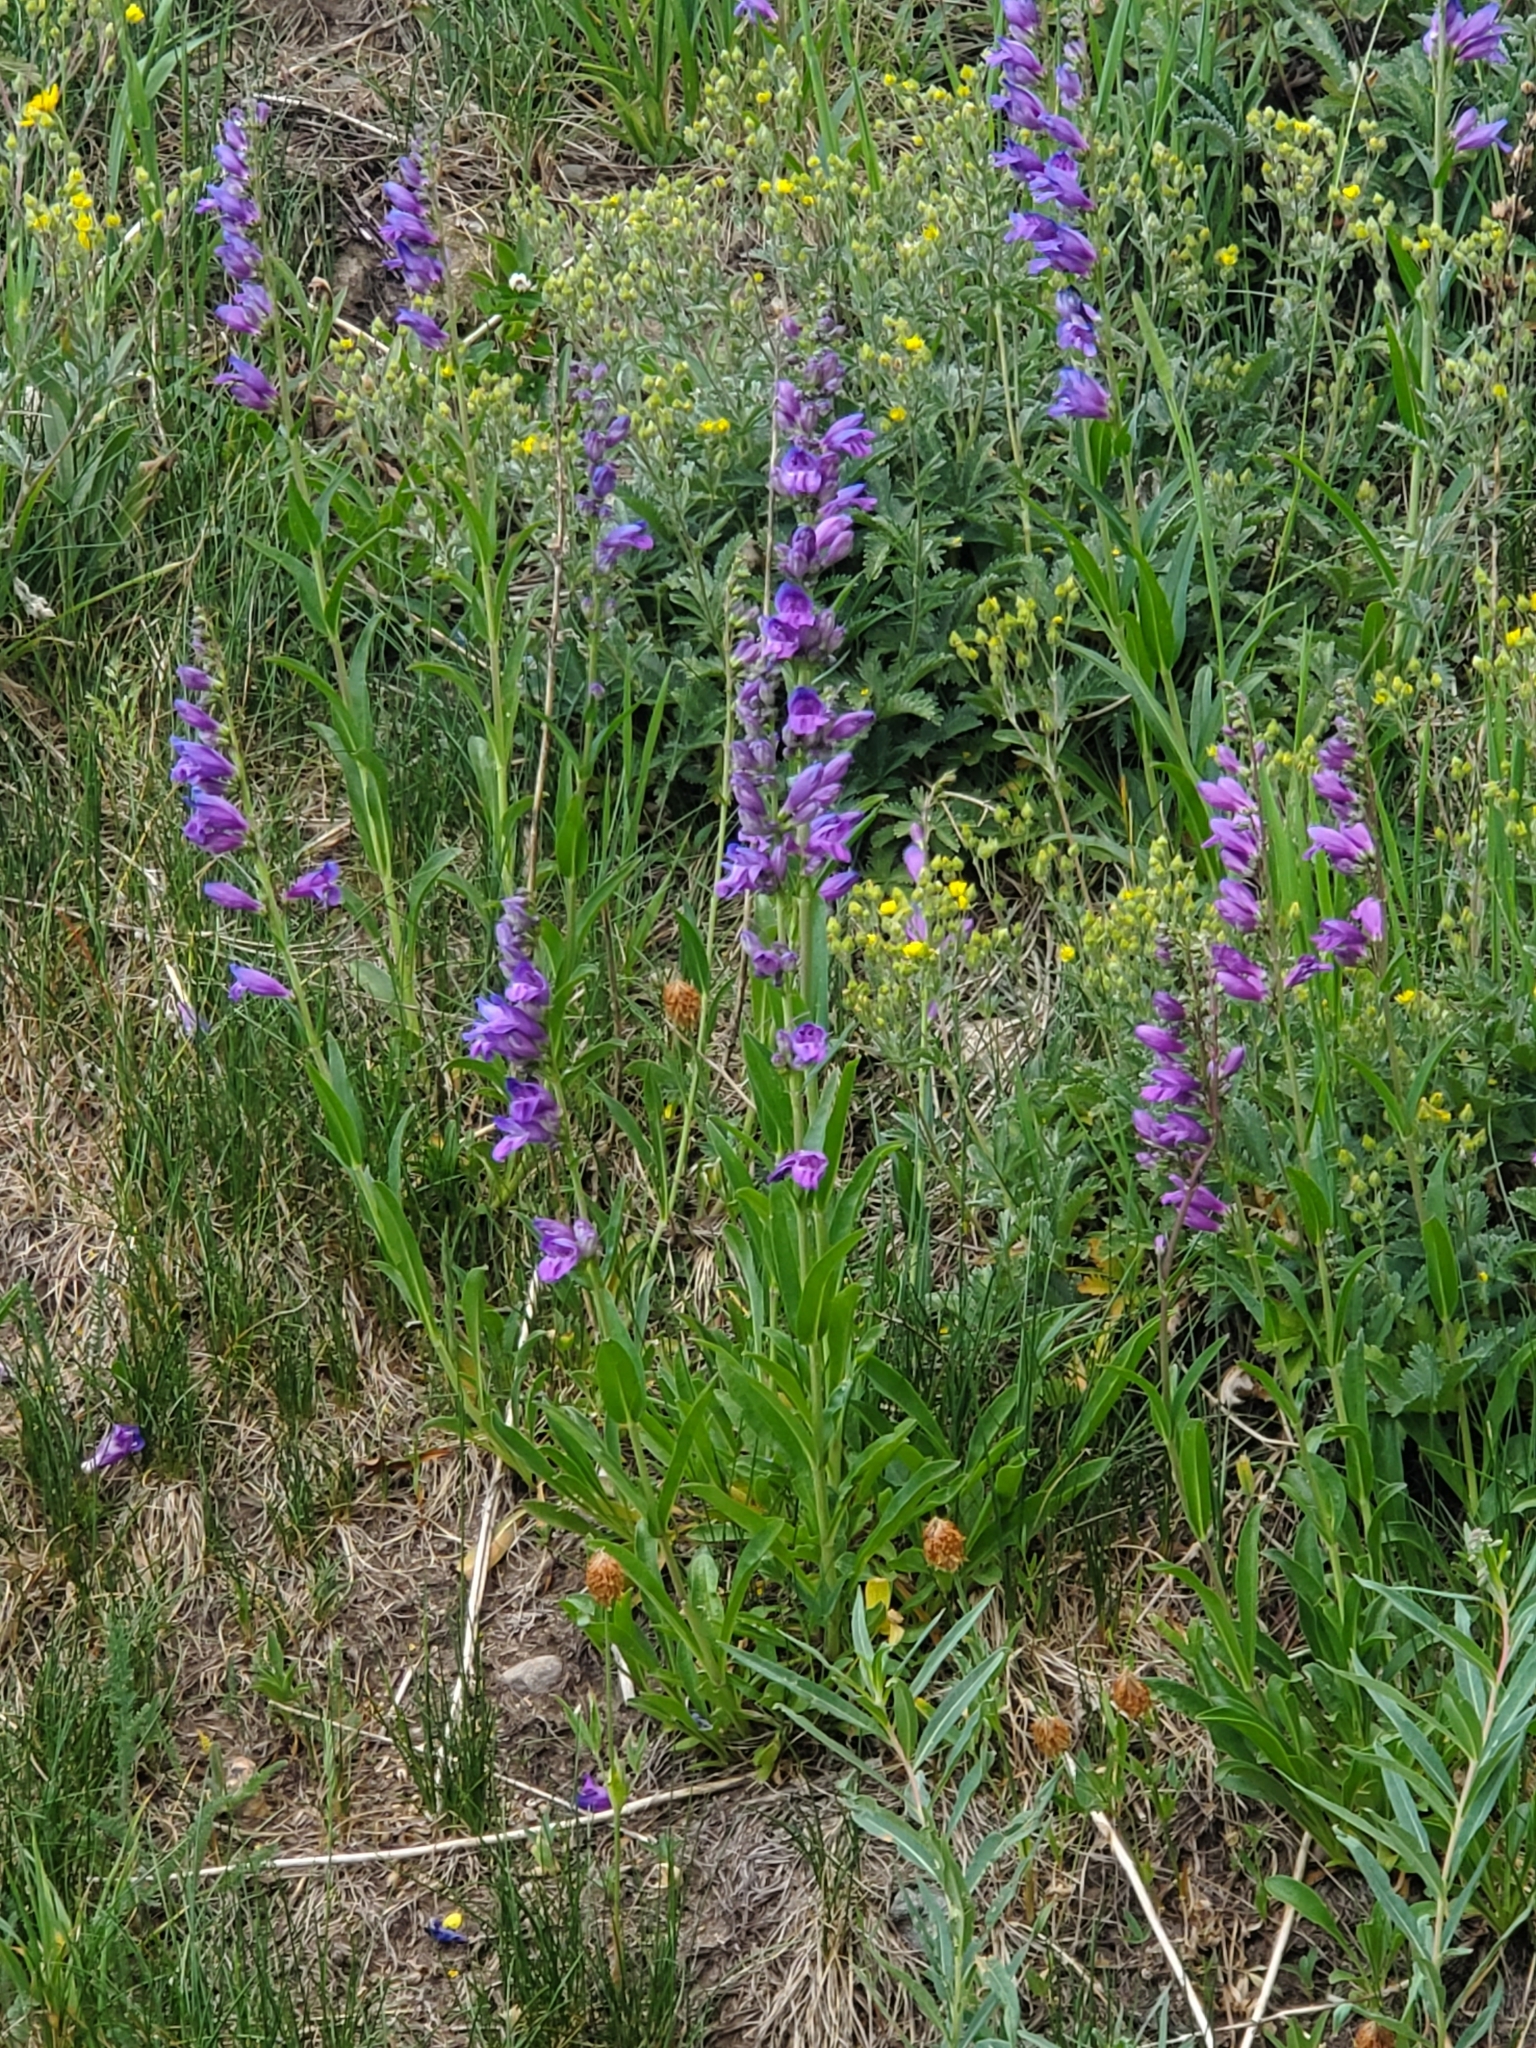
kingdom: Plantae
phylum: Tracheophyta
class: Magnoliopsida
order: Lamiales
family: Plantaginaceae
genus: Penstemon
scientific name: Penstemon strictus
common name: Rocky mountain penstemon
